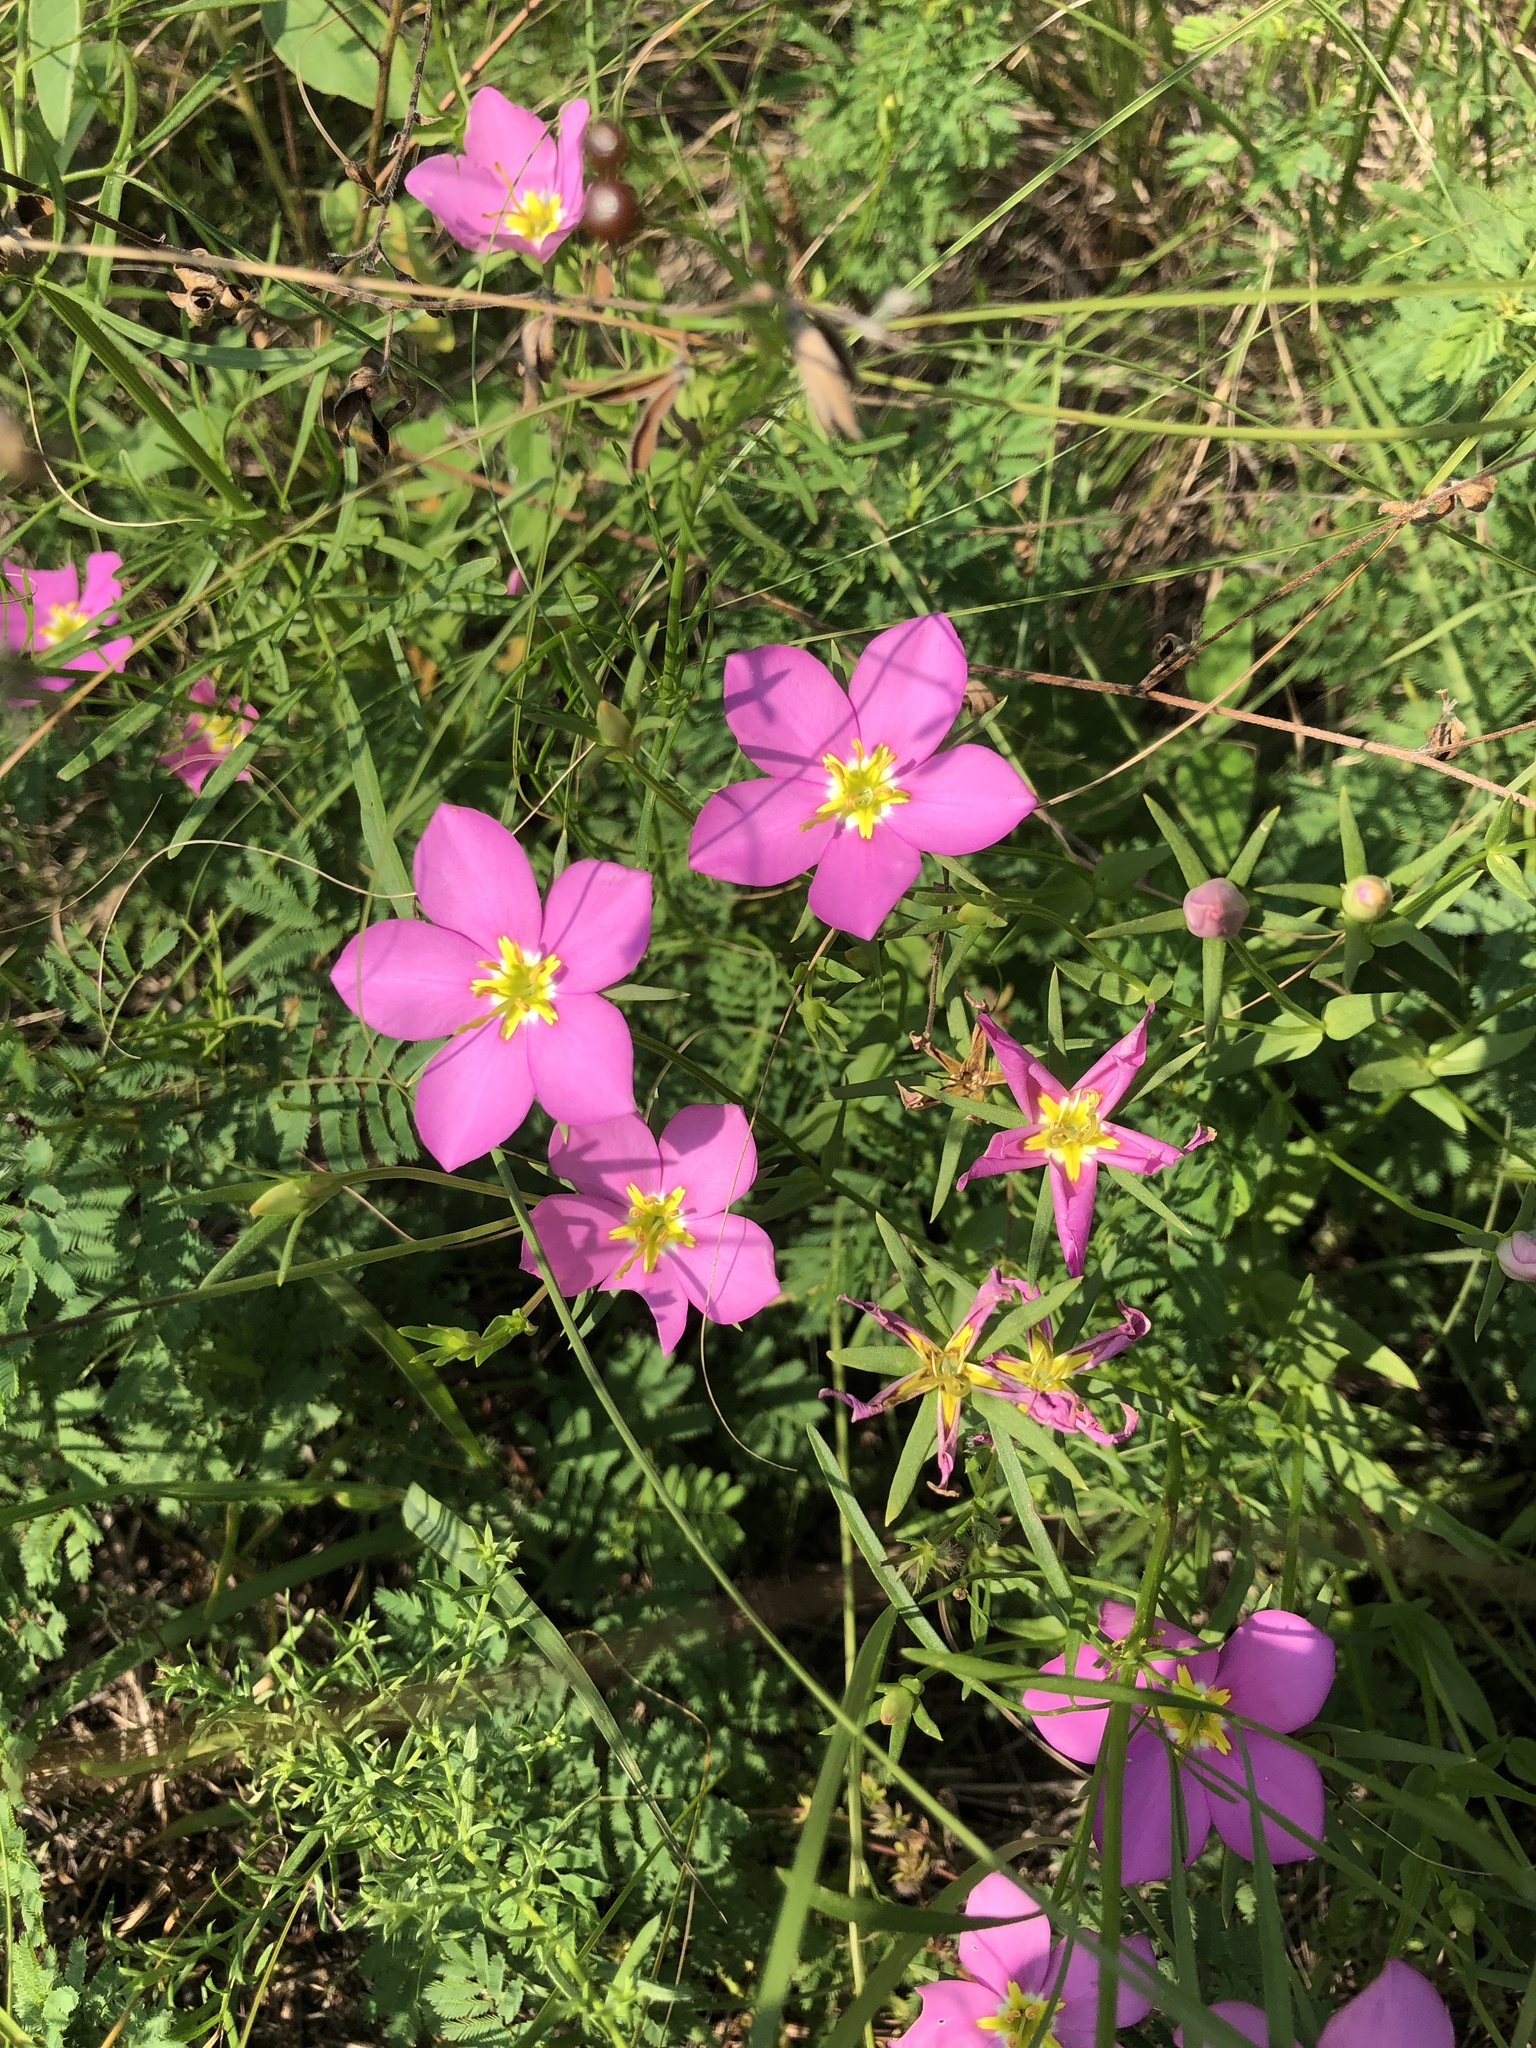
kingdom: Plantae
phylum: Tracheophyta
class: Magnoliopsida
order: Gentianales
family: Gentianaceae
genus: Sabatia
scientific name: Sabatia campestris
